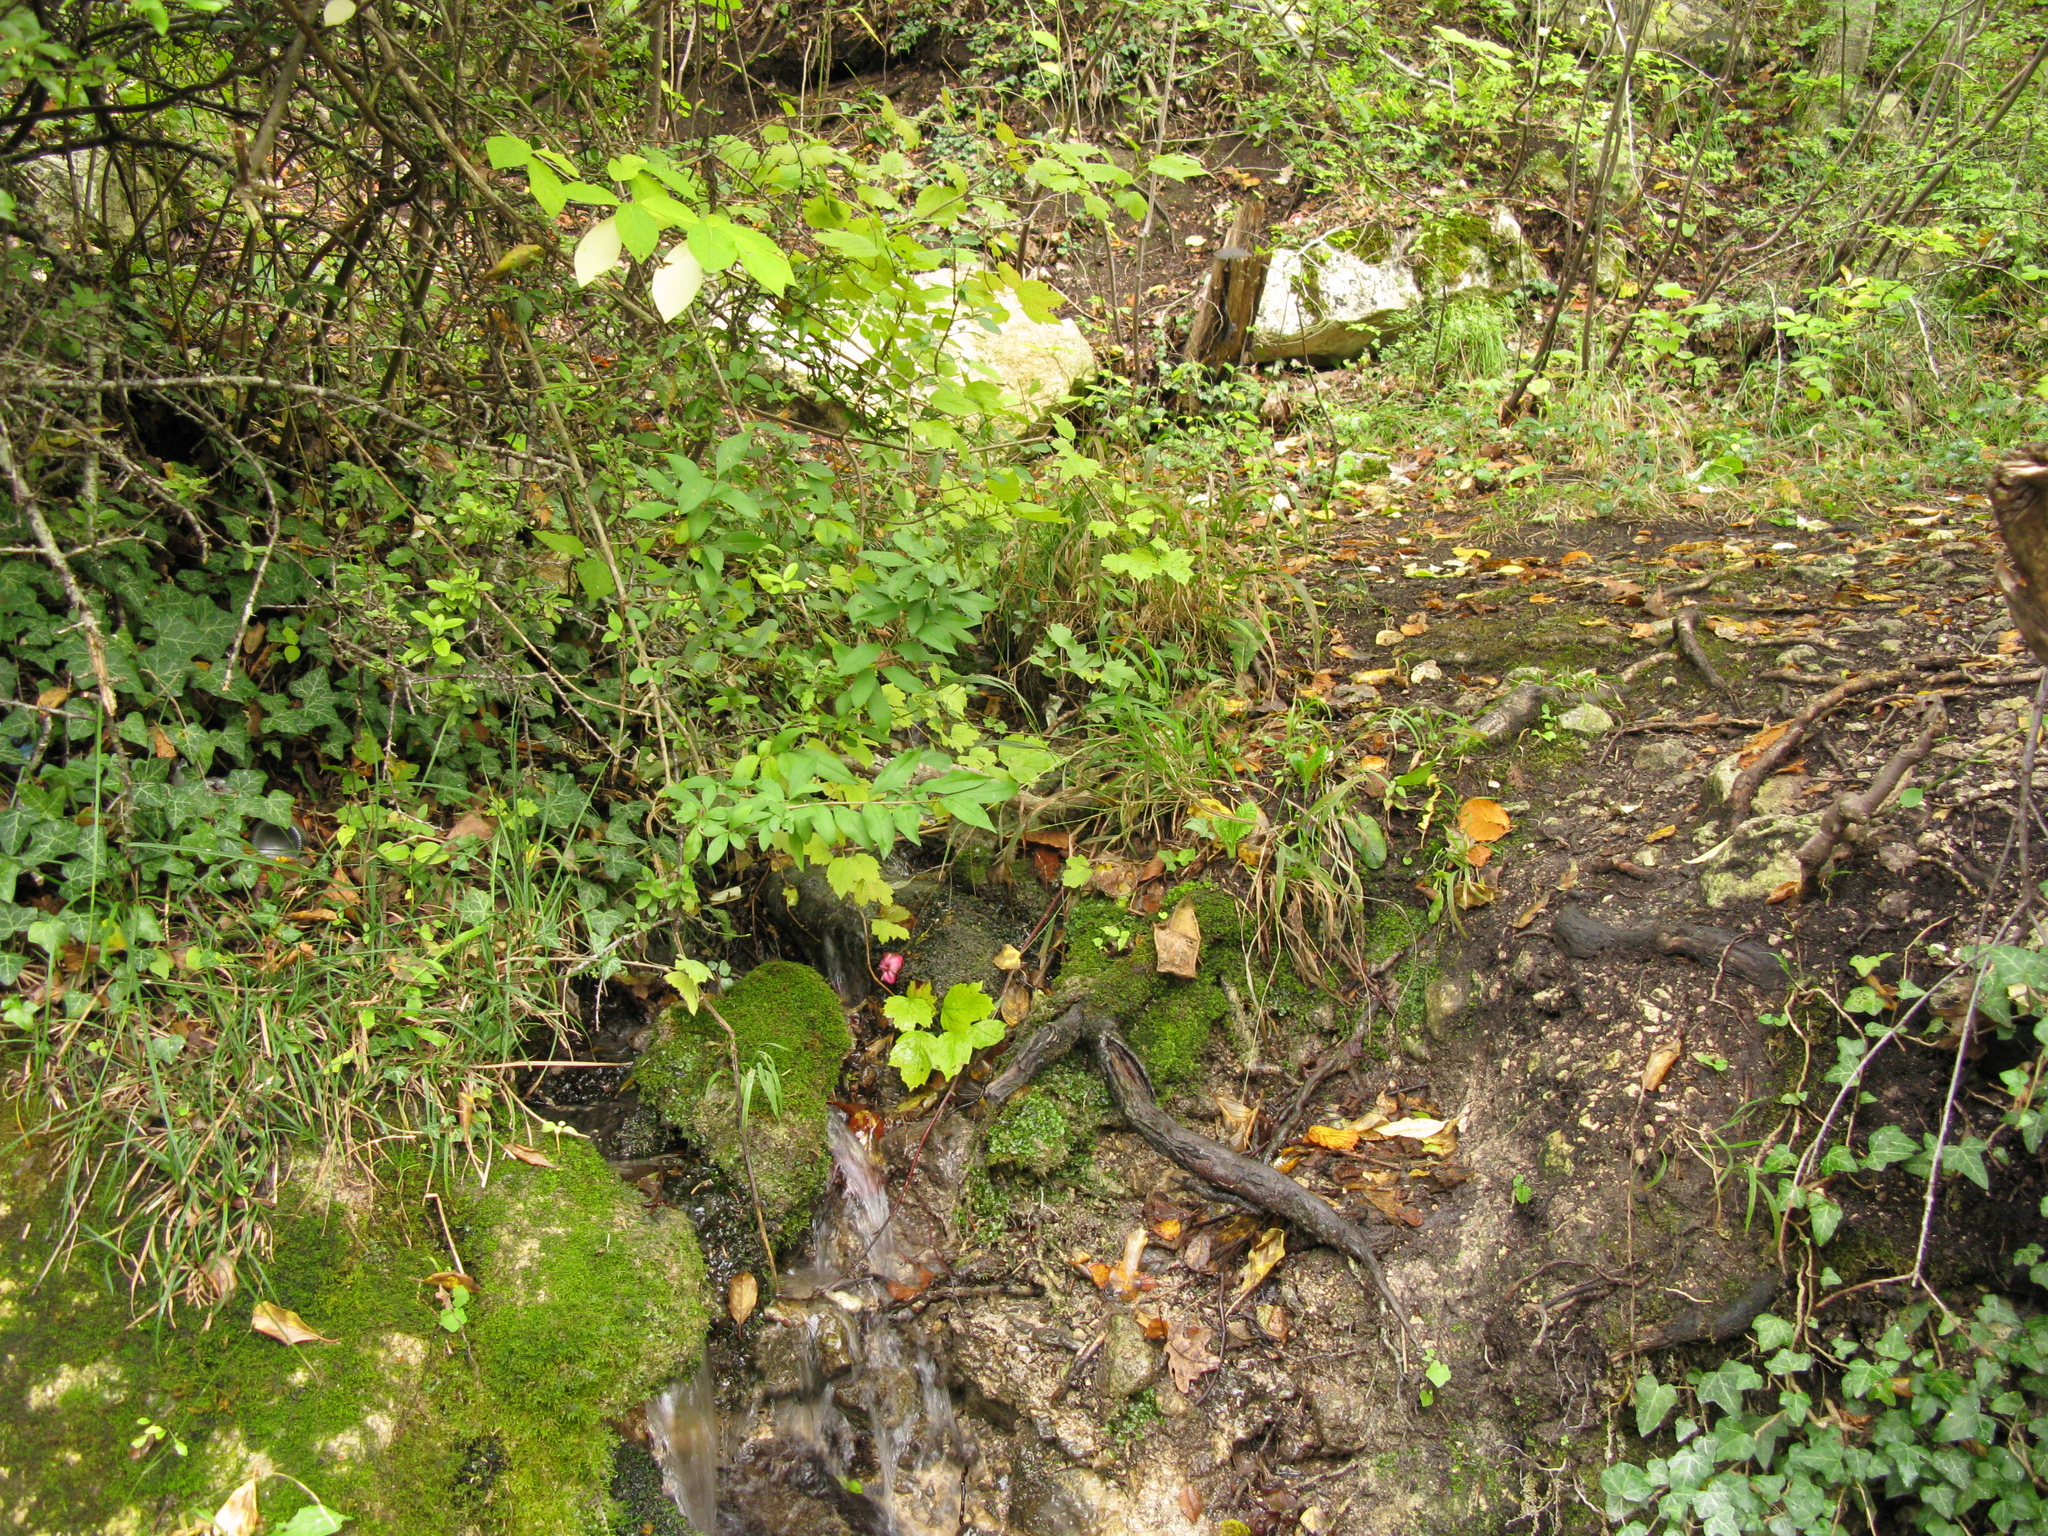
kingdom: Plantae
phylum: Tracheophyta
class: Magnoliopsida
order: Celastrales
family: Celastraceae
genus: Euonymus
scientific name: Euonymus latifolius
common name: Large-leaved spindle
